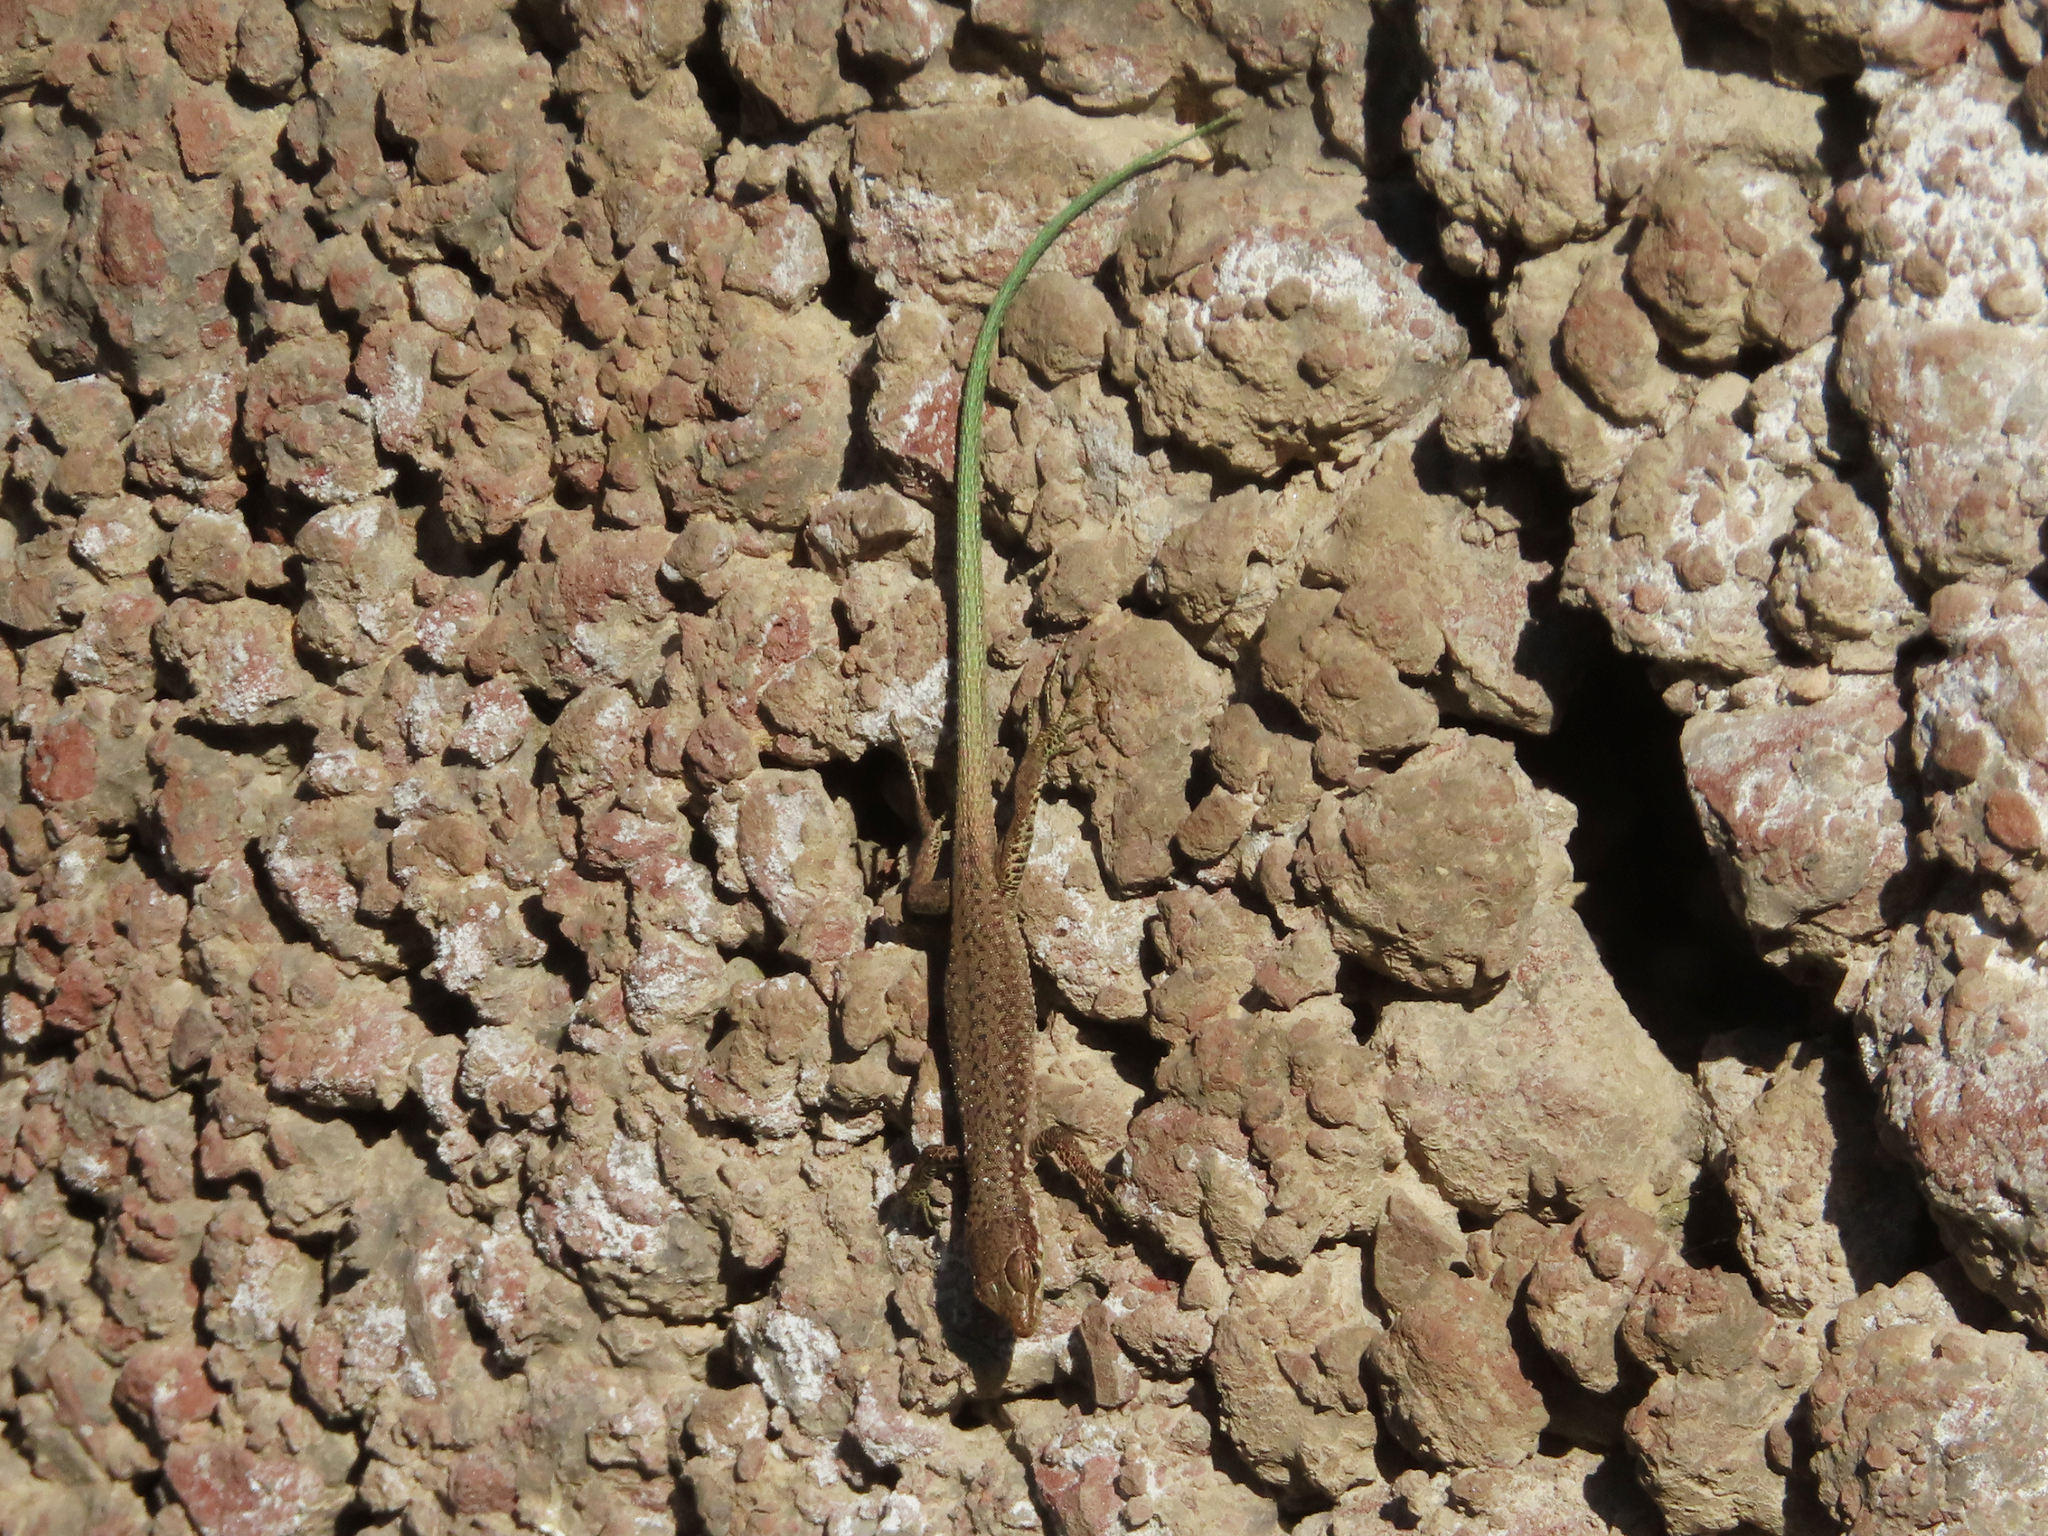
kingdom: Animalia
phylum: Chordata
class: Squamata
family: Lacertidae
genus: Darevskia
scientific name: Darevskia raddei
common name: Radde's lizard
